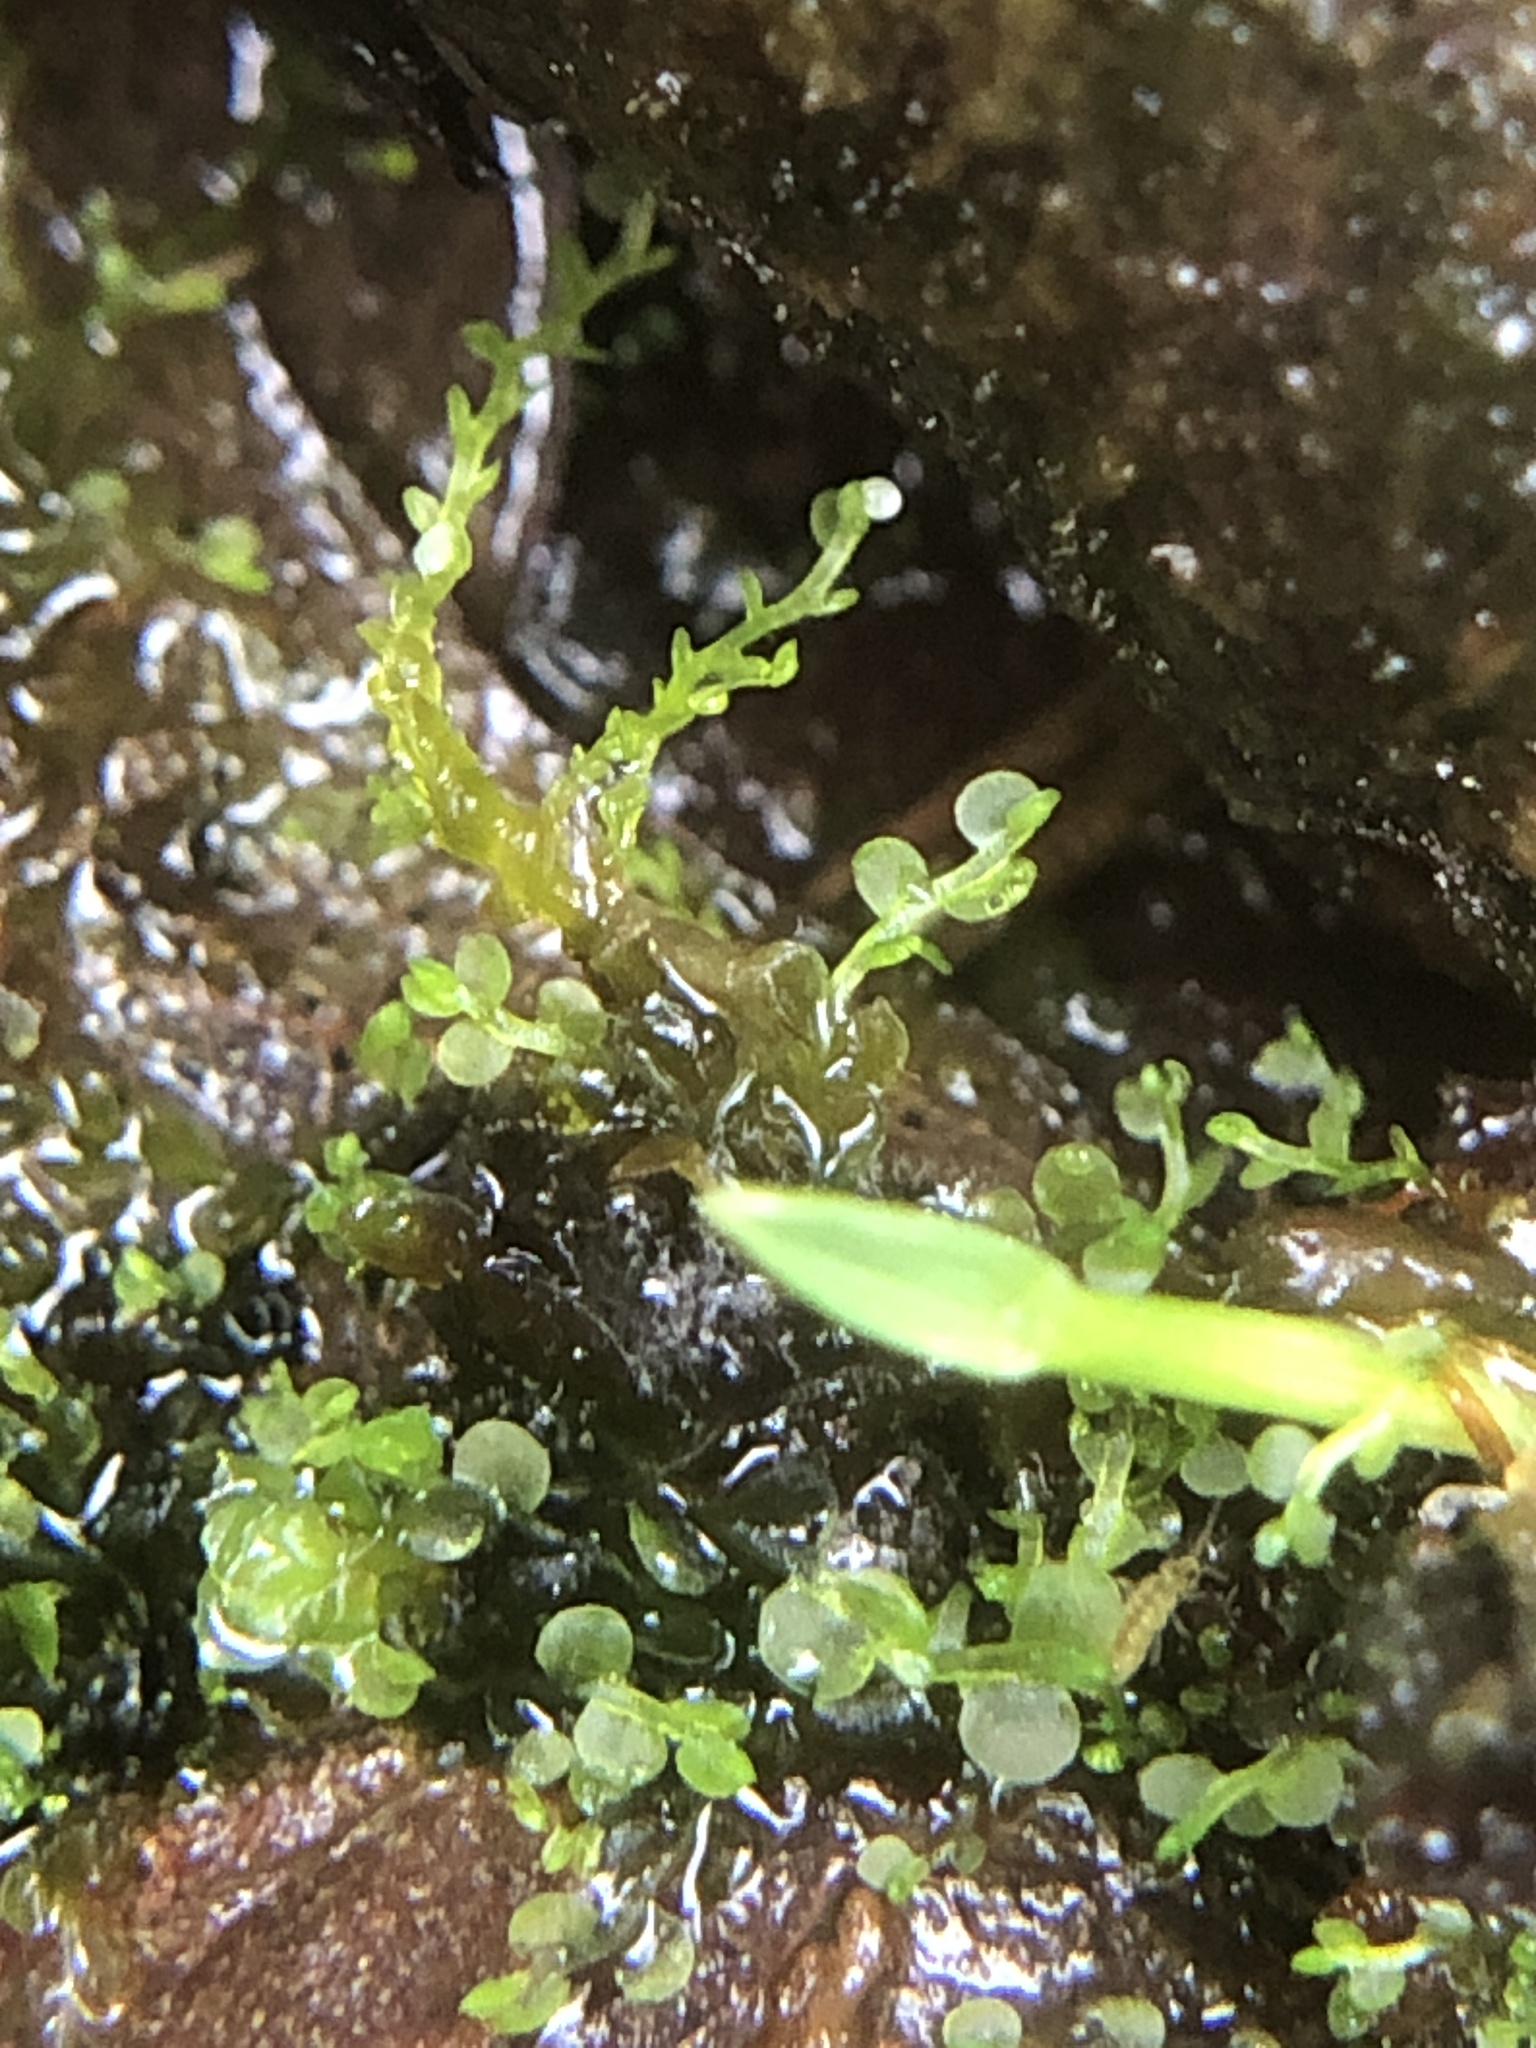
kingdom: Plantae
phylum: Marchantiophyta
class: Jungermanniopsida
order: Jungermanniales
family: Solenostomataceae
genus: Solenostoma
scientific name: Solenostoma gracillimum
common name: Crenulated flapwort
